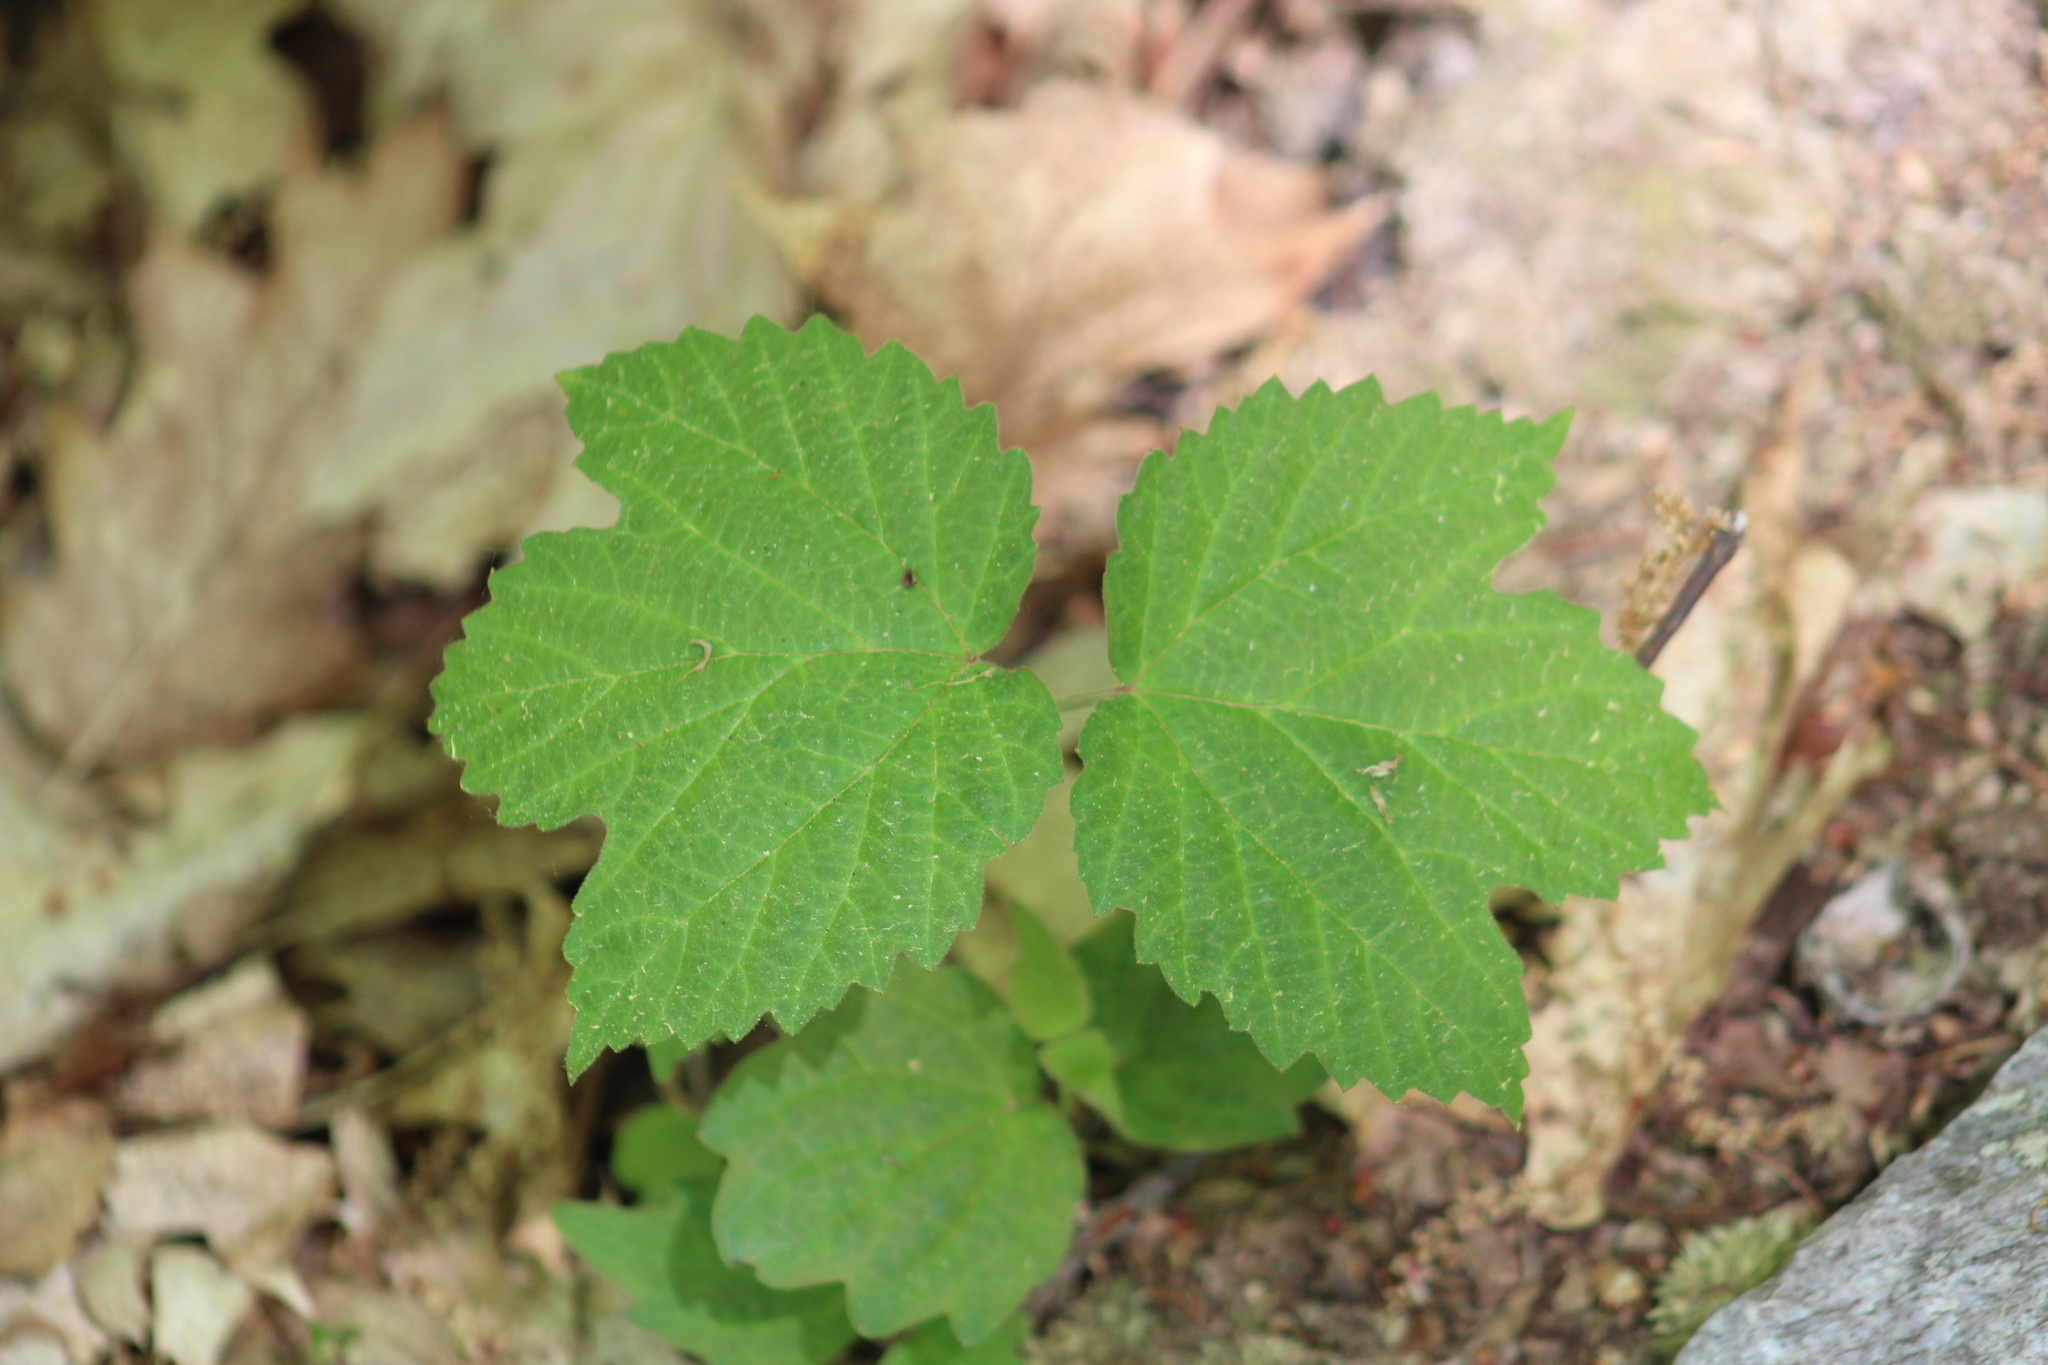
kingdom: Plantae
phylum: Tracheophyta
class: Magnoliopsida
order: Dipsacales
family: Viburnaceae
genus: Viburnum
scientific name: Viburnum acerifolium
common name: Dockmackie
